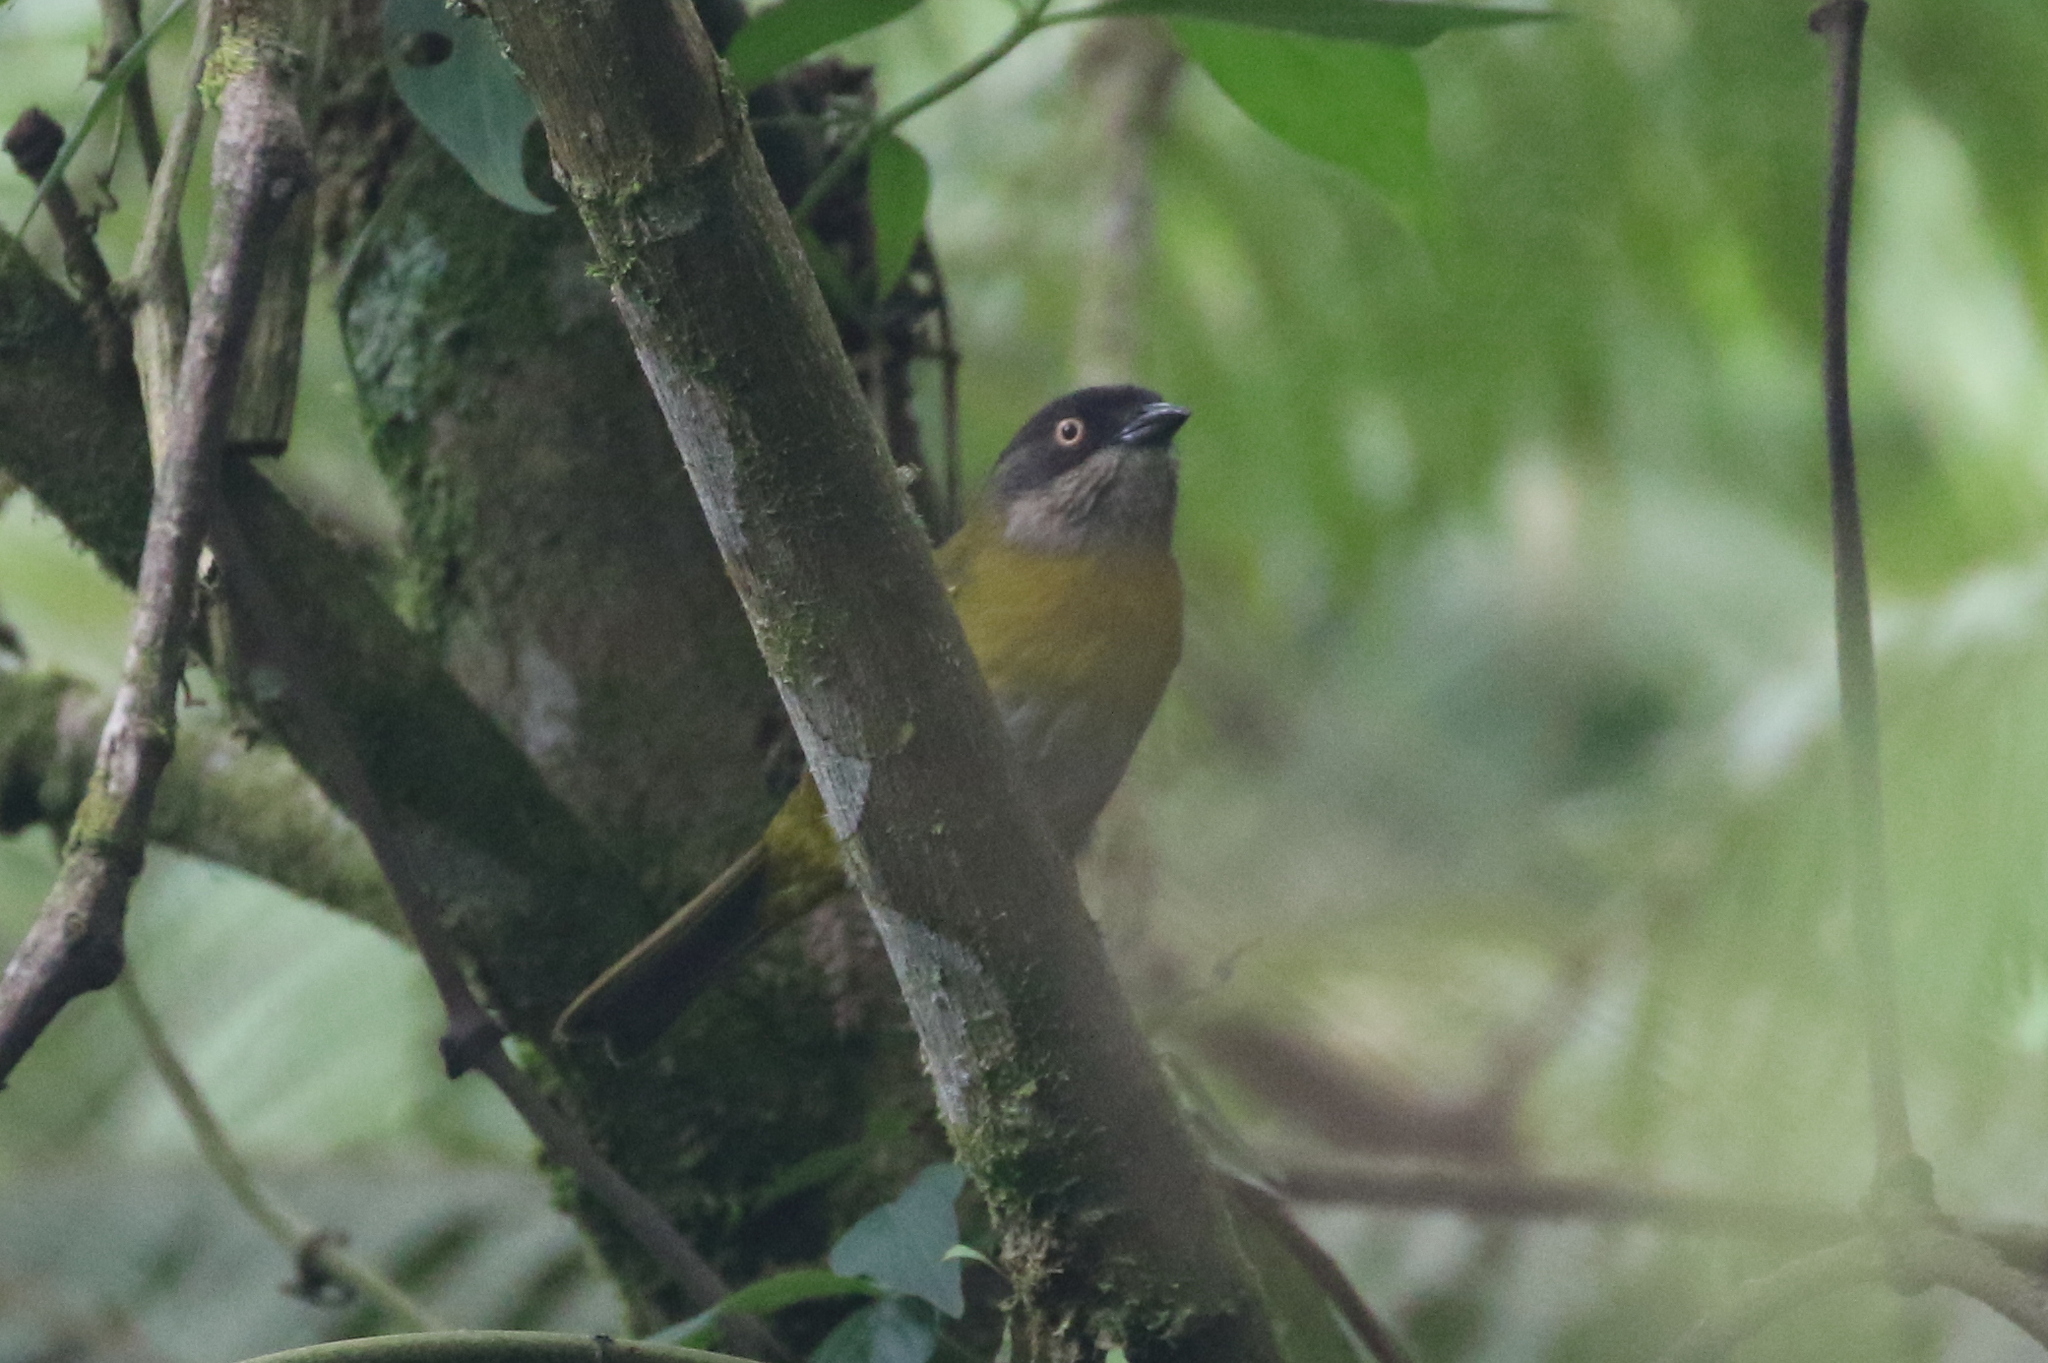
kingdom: Animalia
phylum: Chordata
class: Aves
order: Passeriformes
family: Passerellidae
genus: Chlorospingus
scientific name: Chlorospingus flavopectus
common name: Common chlorospingus
